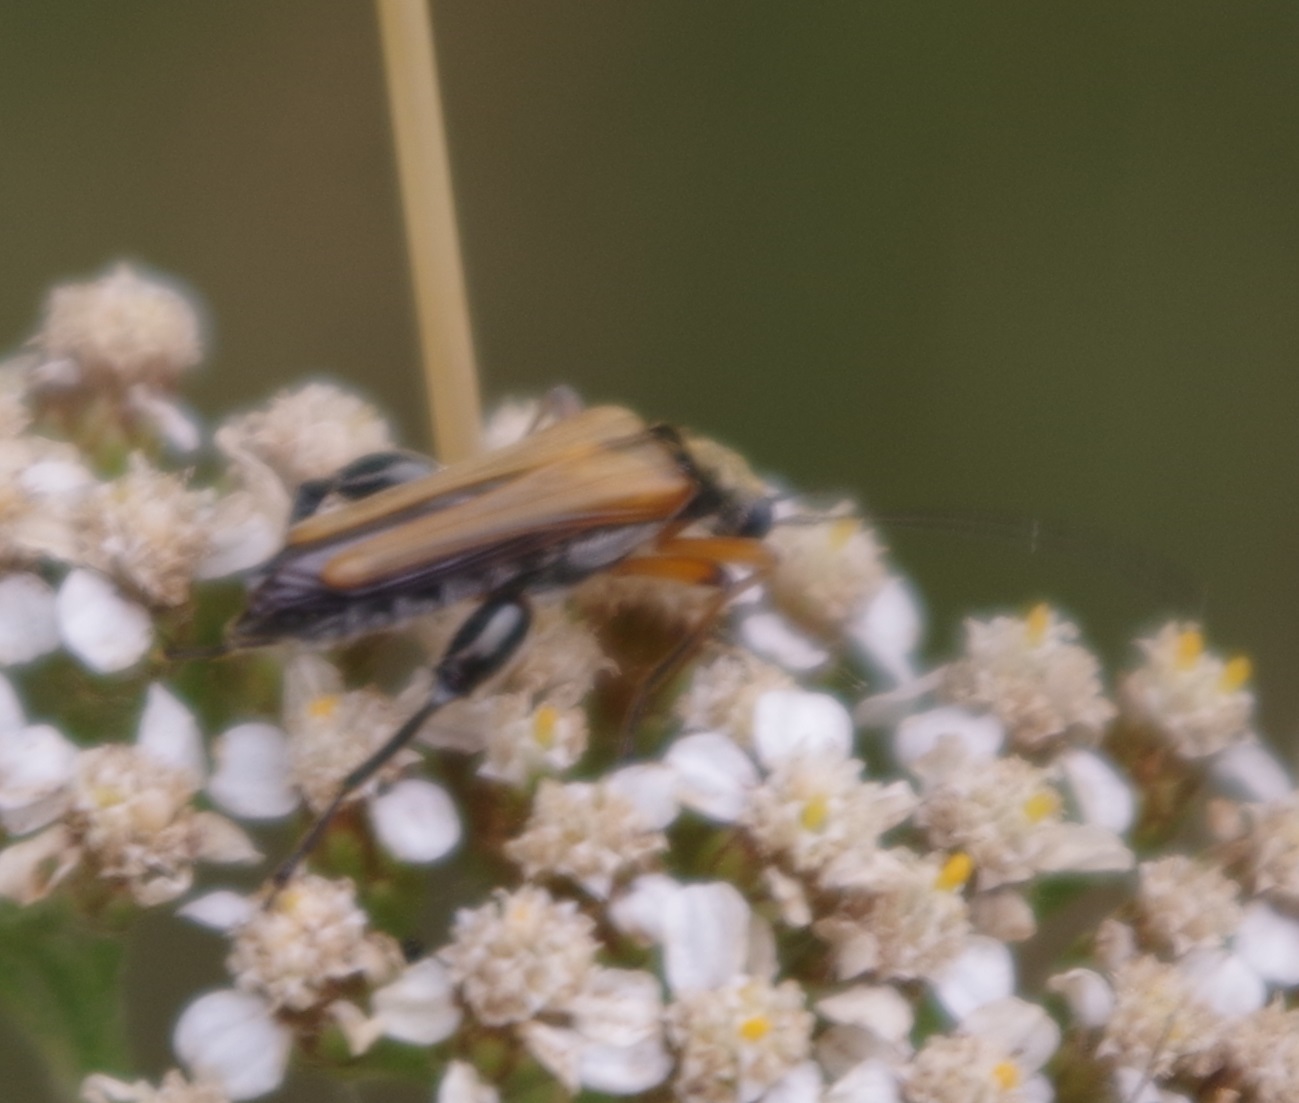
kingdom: Animalia
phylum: Arthropoda
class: Insecta
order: Coleoptera
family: Oedemeridae
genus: Oedemera
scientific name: Oedemera podagrariae
